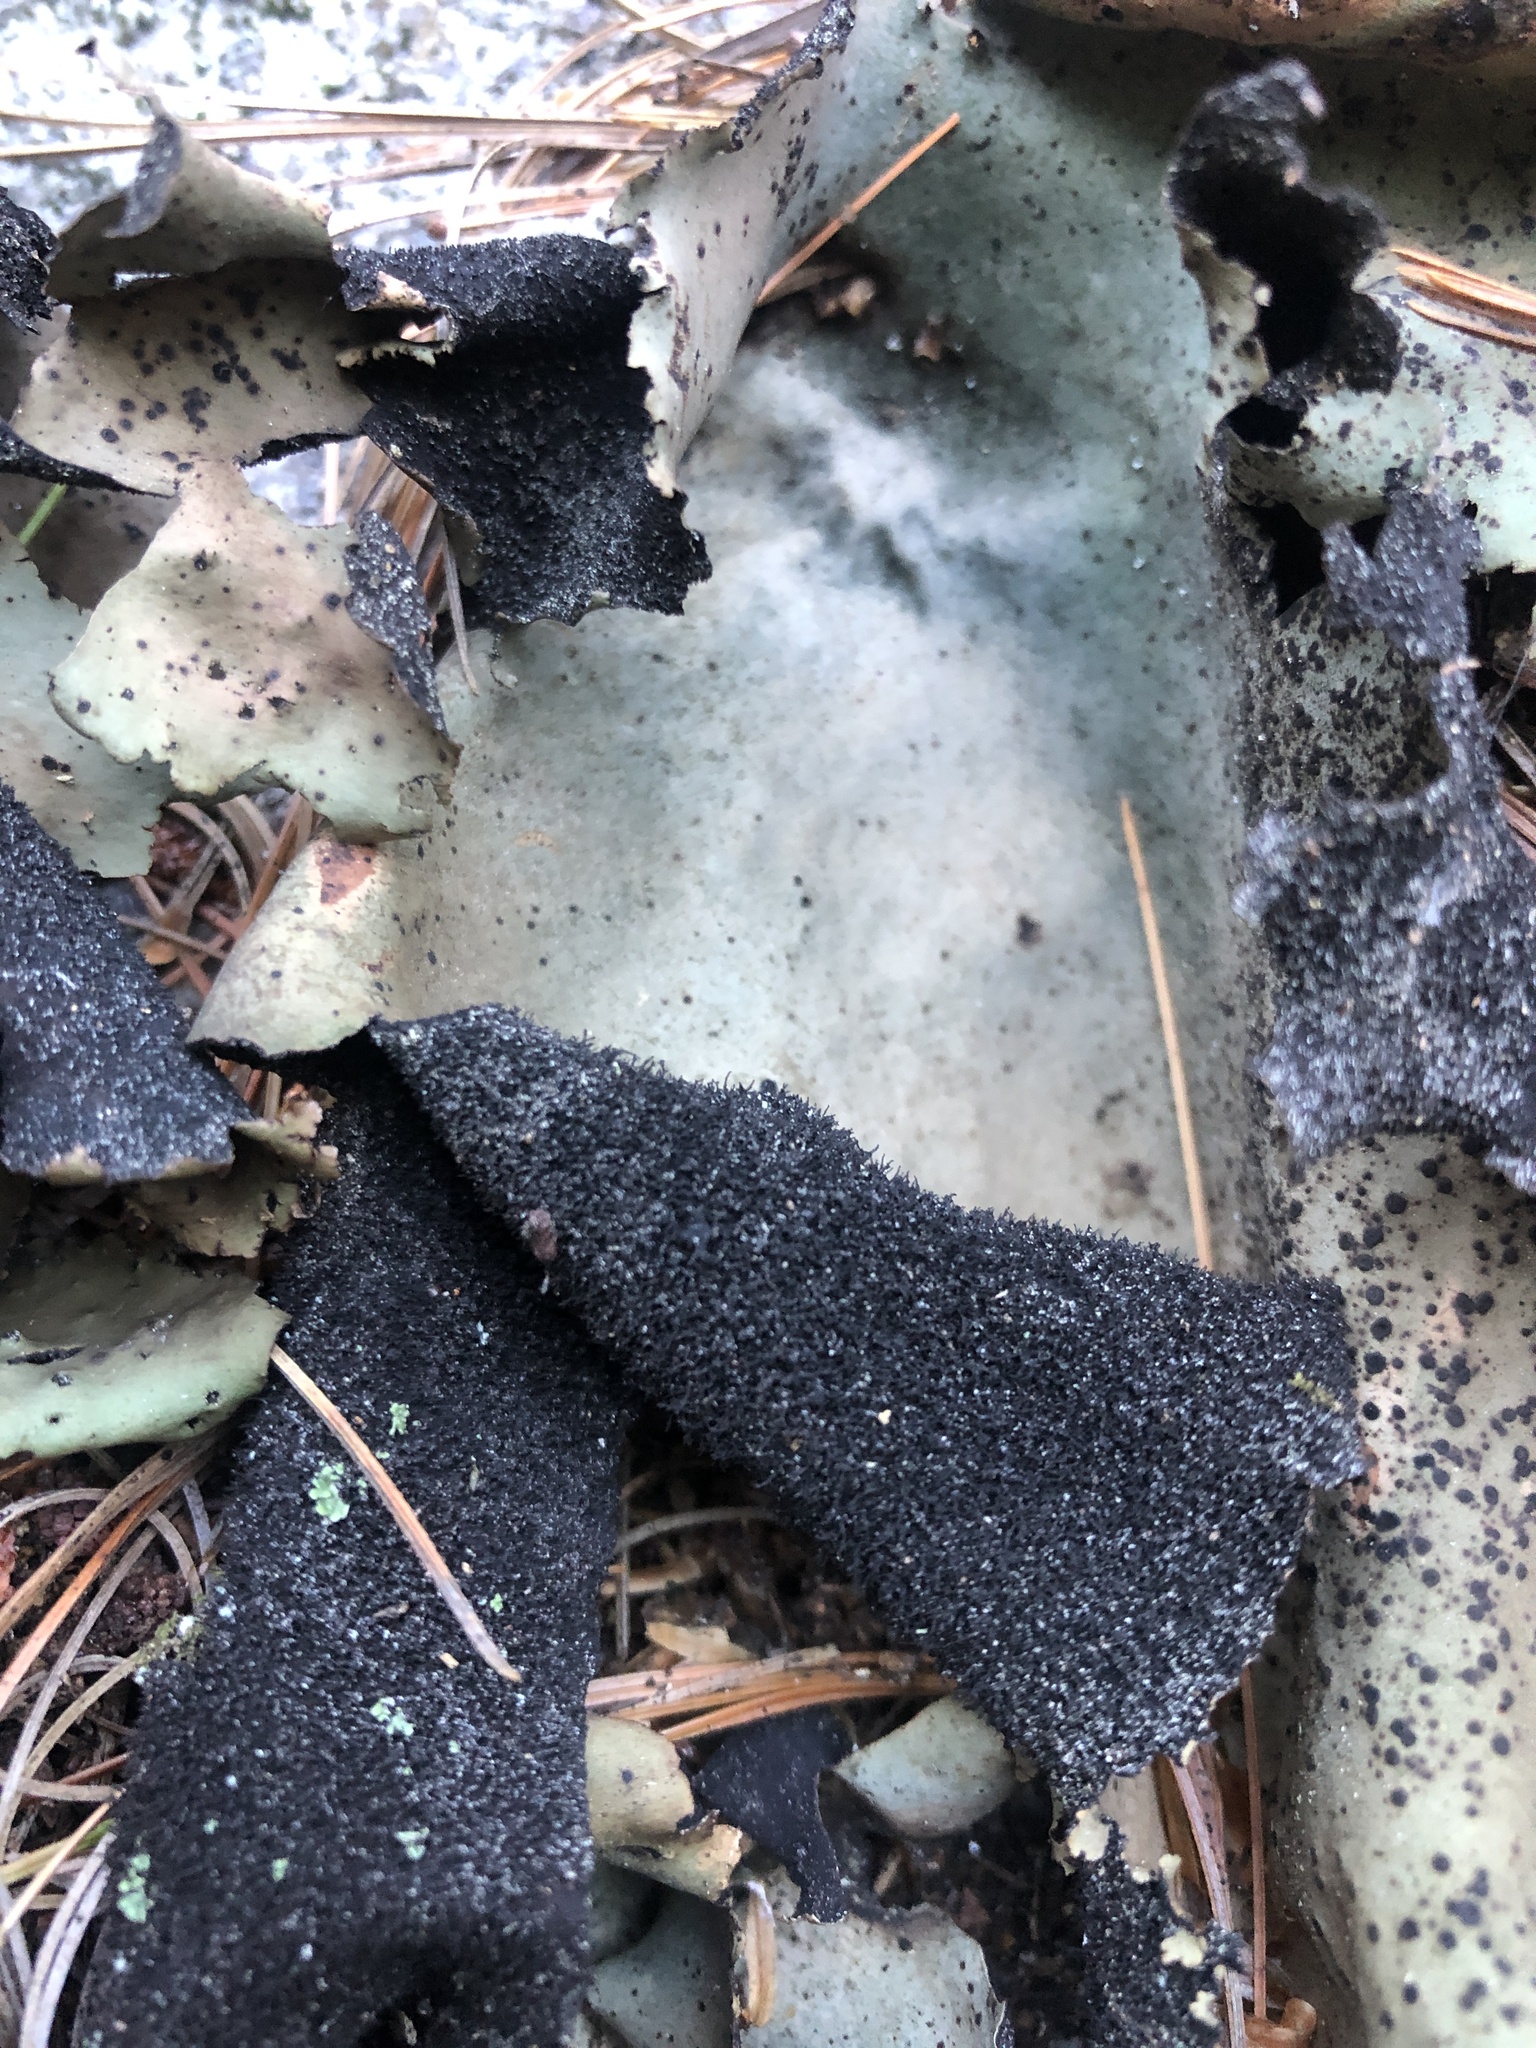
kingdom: Fungi
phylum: Ascomycota
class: Lecanoromycetes
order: Umbilicariales
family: Umbilicariaceae
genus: Umbilicaria
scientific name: Umbilicaria mammulata
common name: Smooth rock tripe
